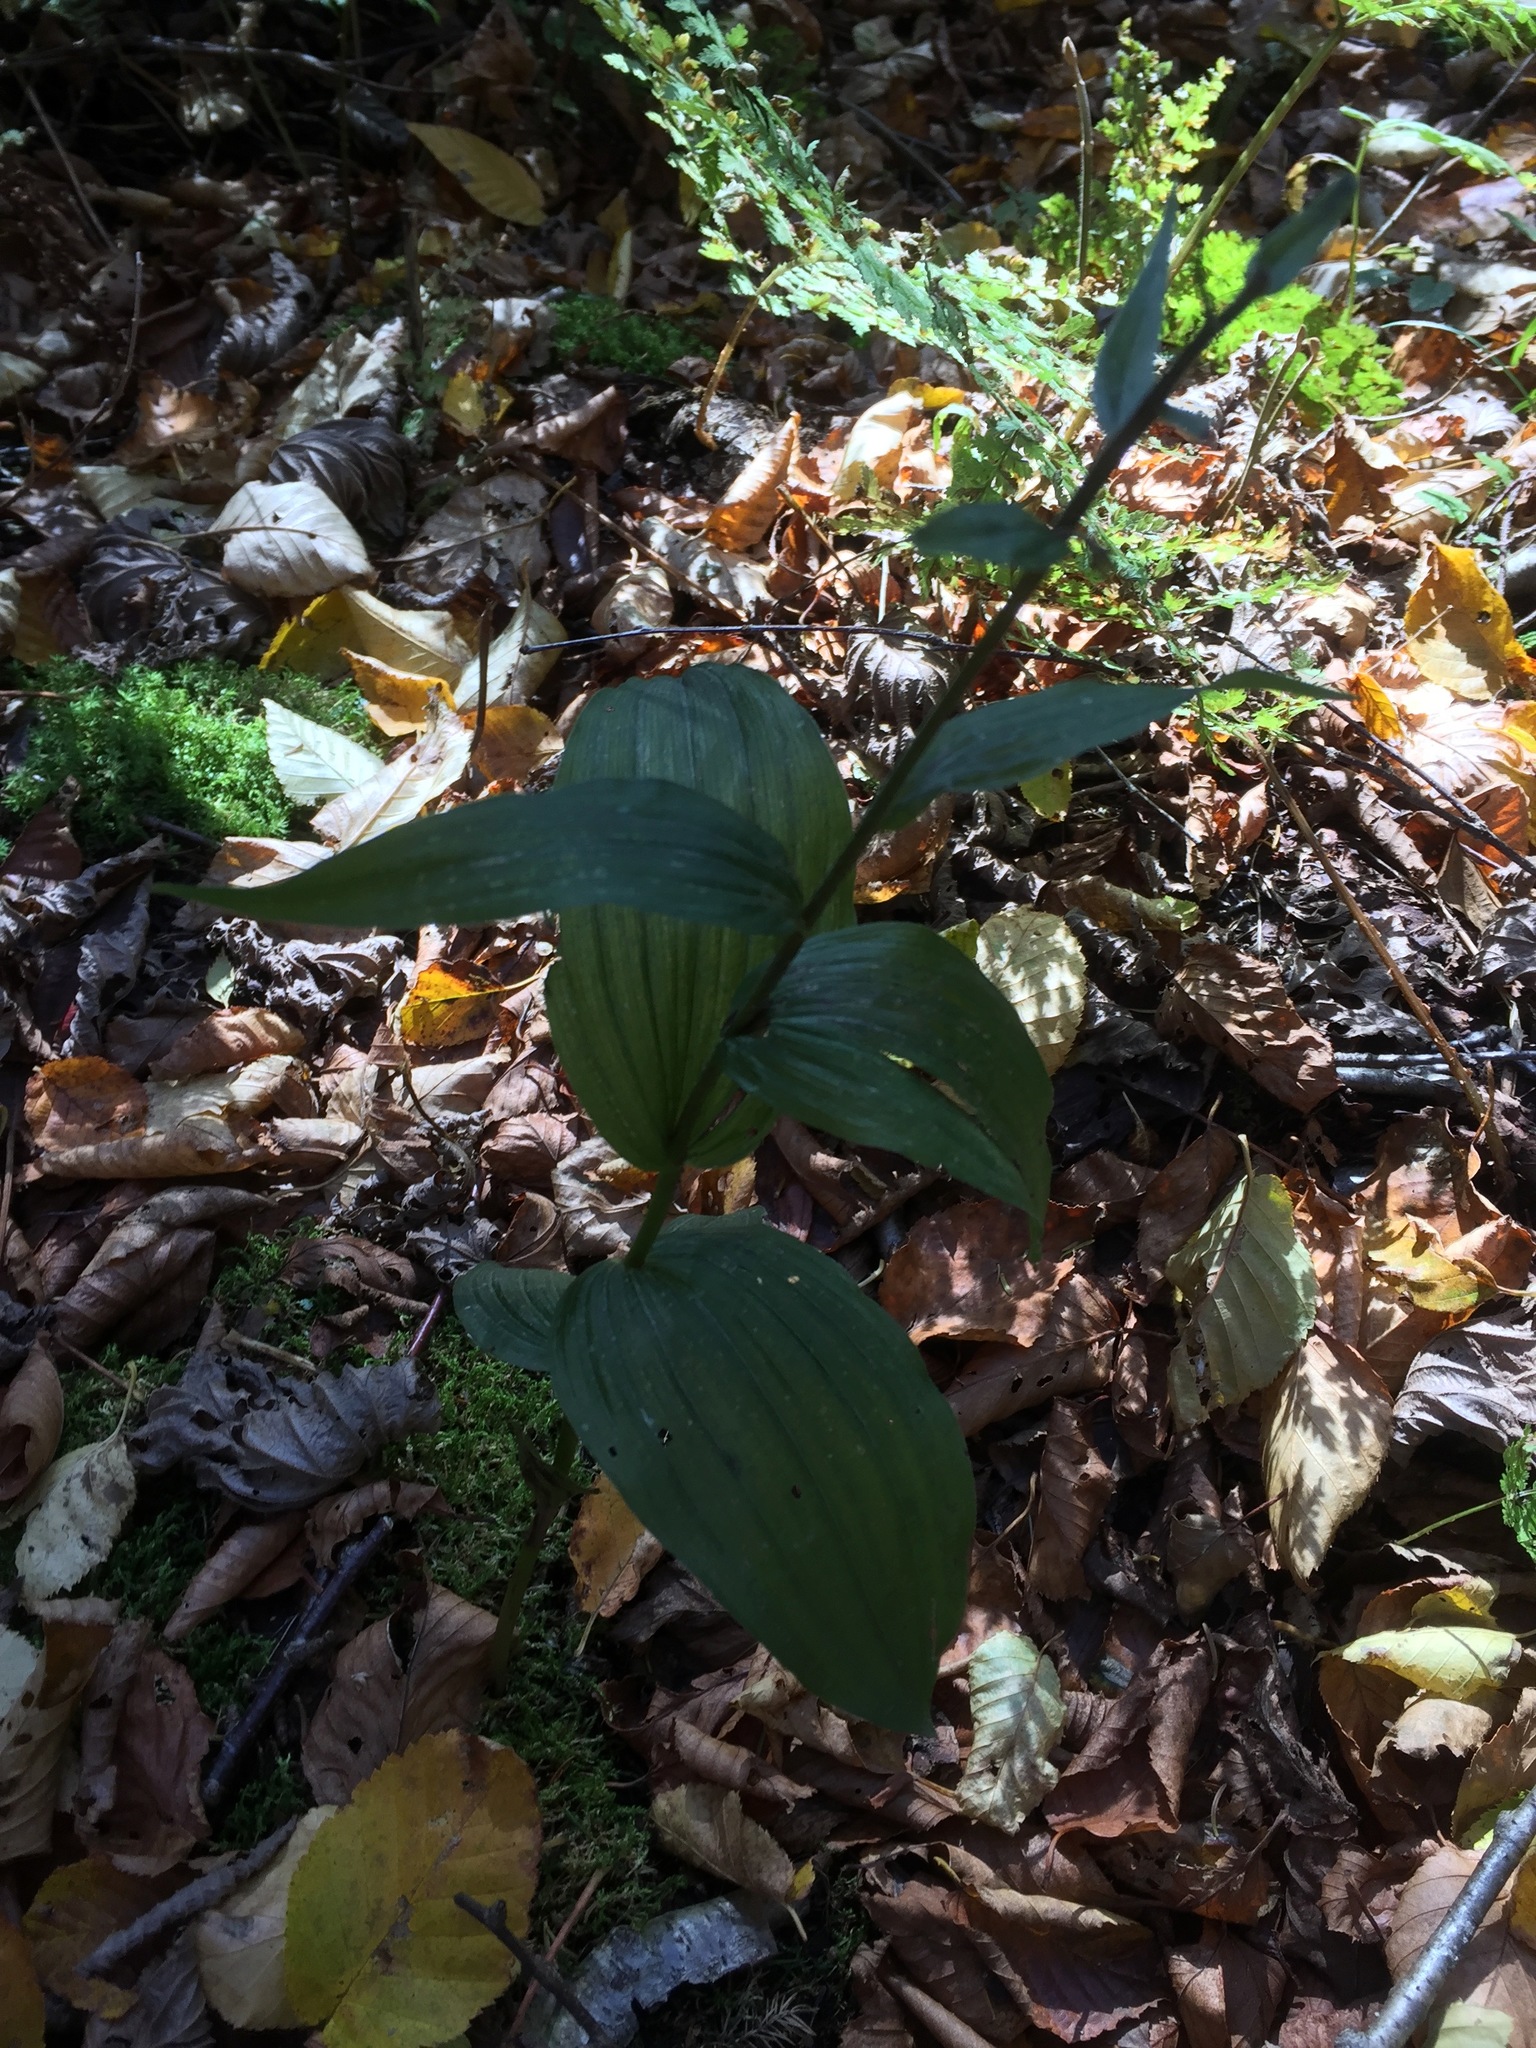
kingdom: Plantae
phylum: Tracheophyta
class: Liliopsida
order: Asparagales
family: Orchidaceae
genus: Epipactis
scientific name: Epipactis helleborine
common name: Broad-leaved helleborine
